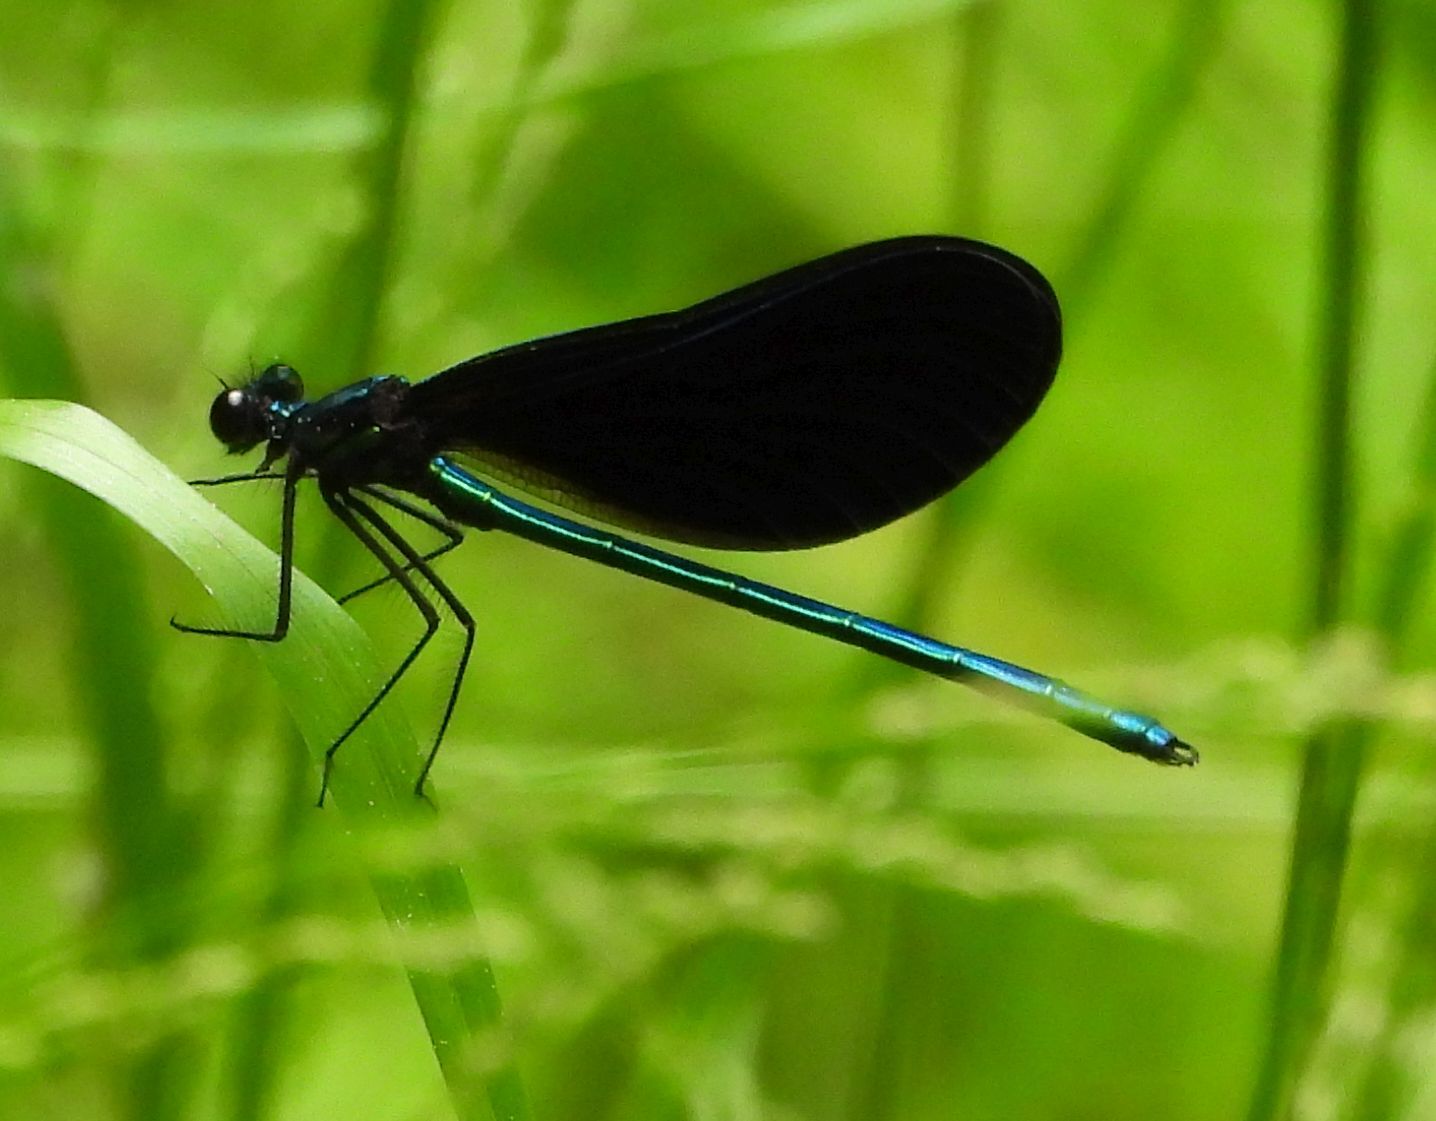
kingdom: Animalia
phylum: Arthropoda
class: Insecta
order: Odonata
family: Calopterygidae
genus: Calopteryx
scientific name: Calopteryx maculata
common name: Ebony jewelwing
